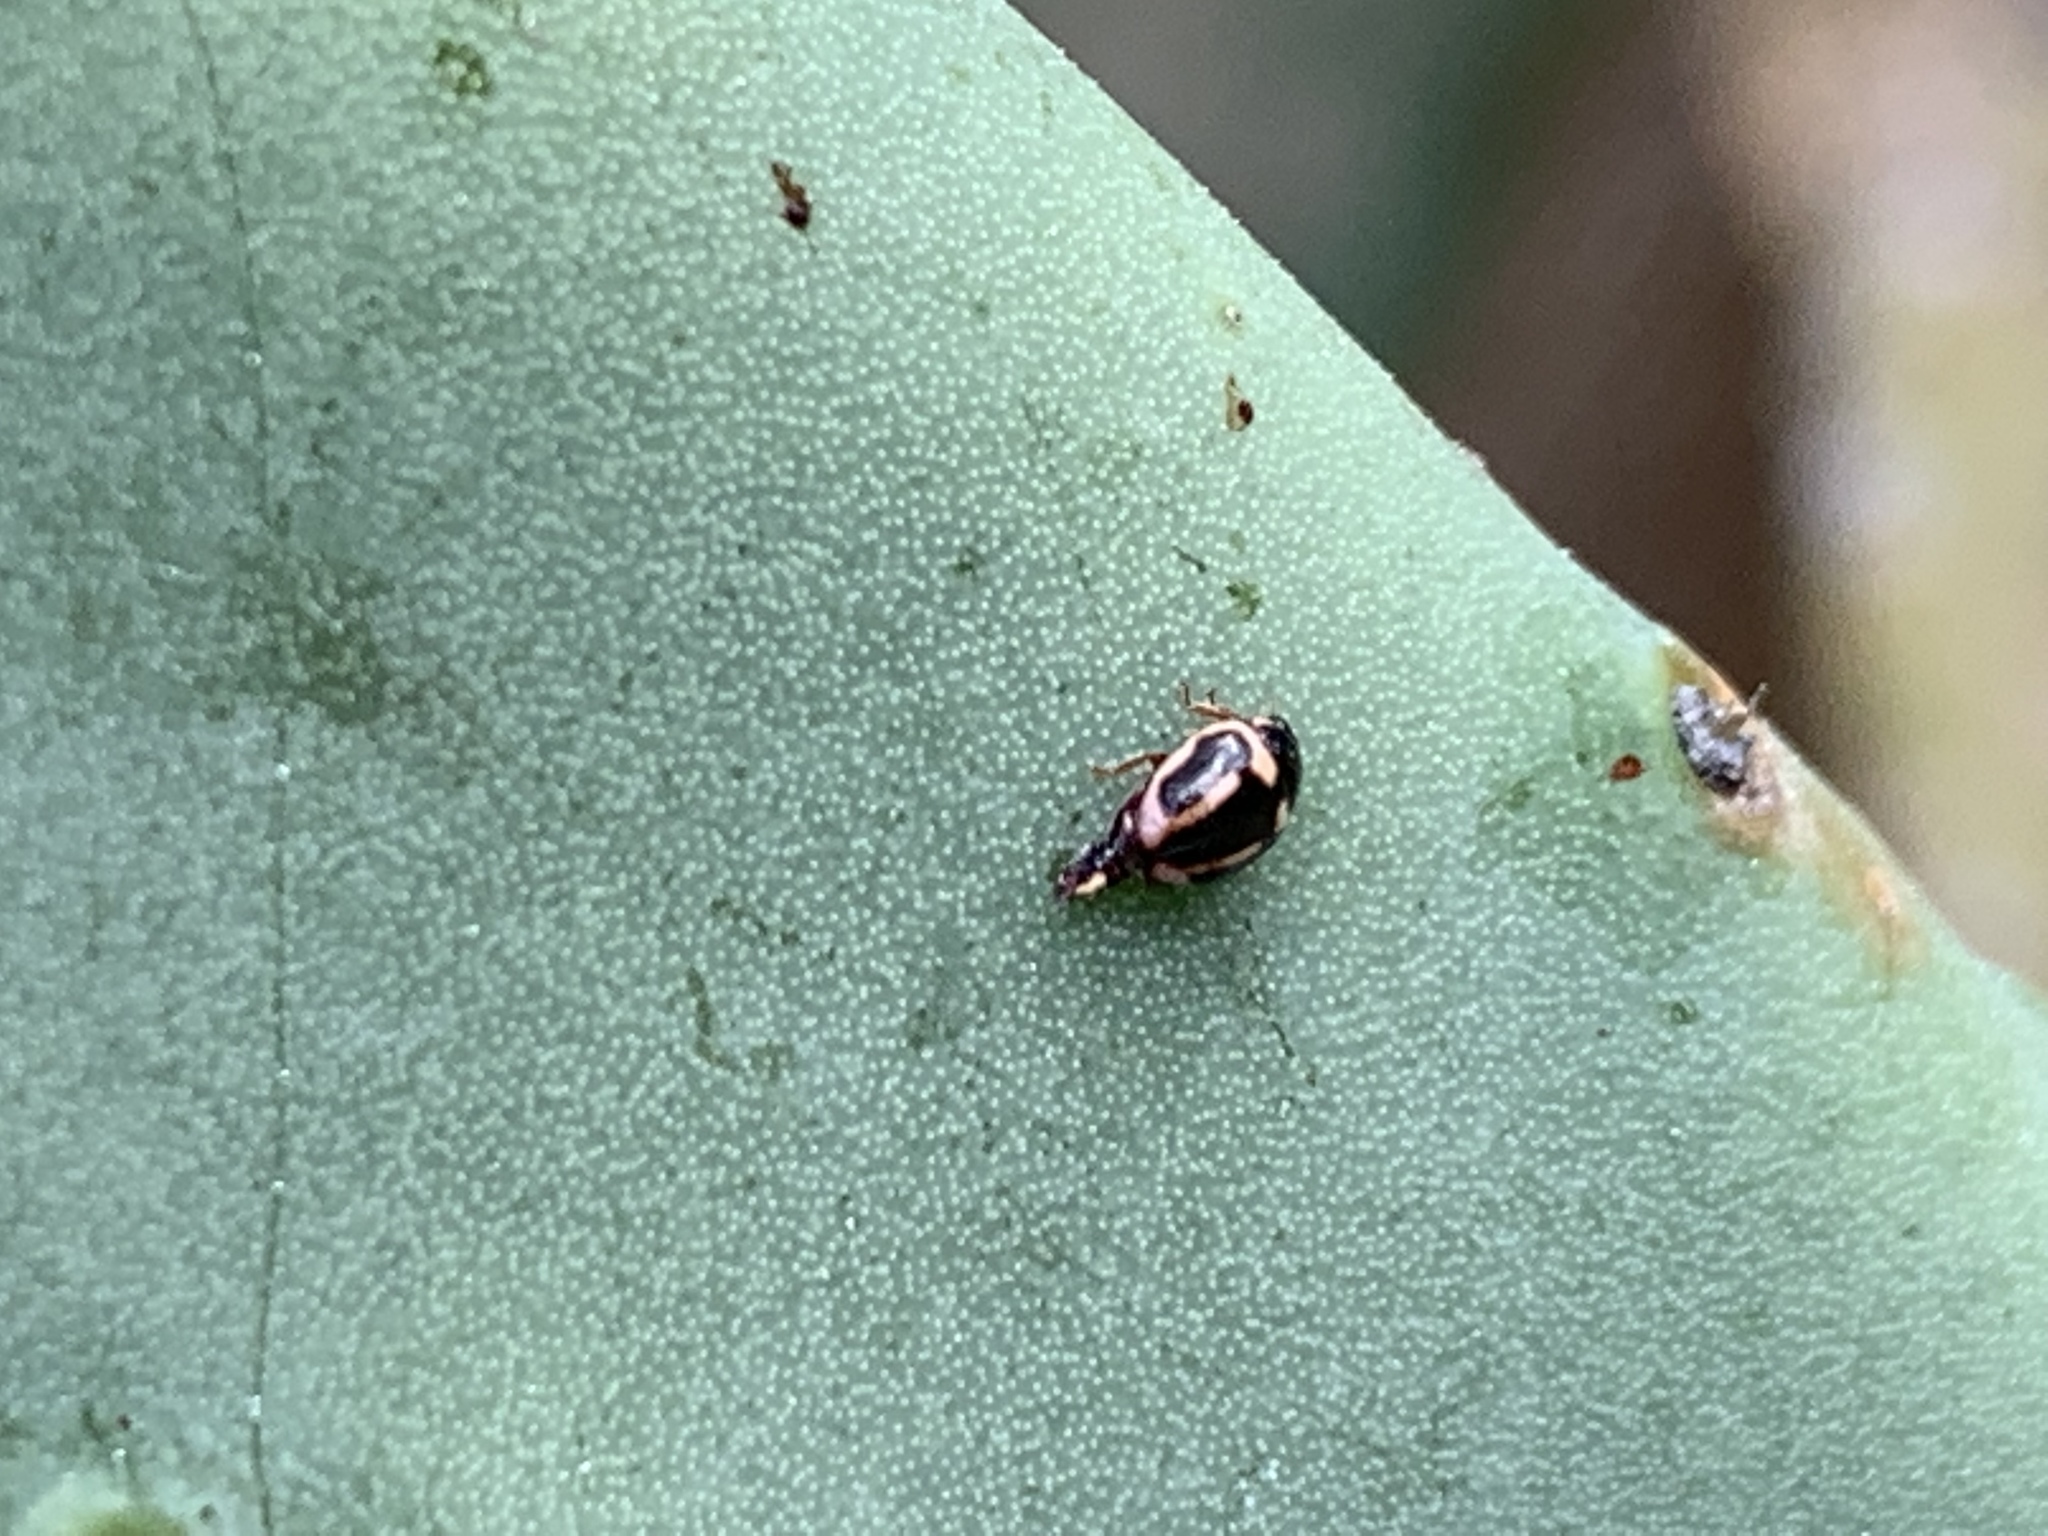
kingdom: Animalia
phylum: Arthropoda
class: Insecta
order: Coleoptera
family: Coccinellidae
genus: Hyperaspis
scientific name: Hyperaspis trifurcata
